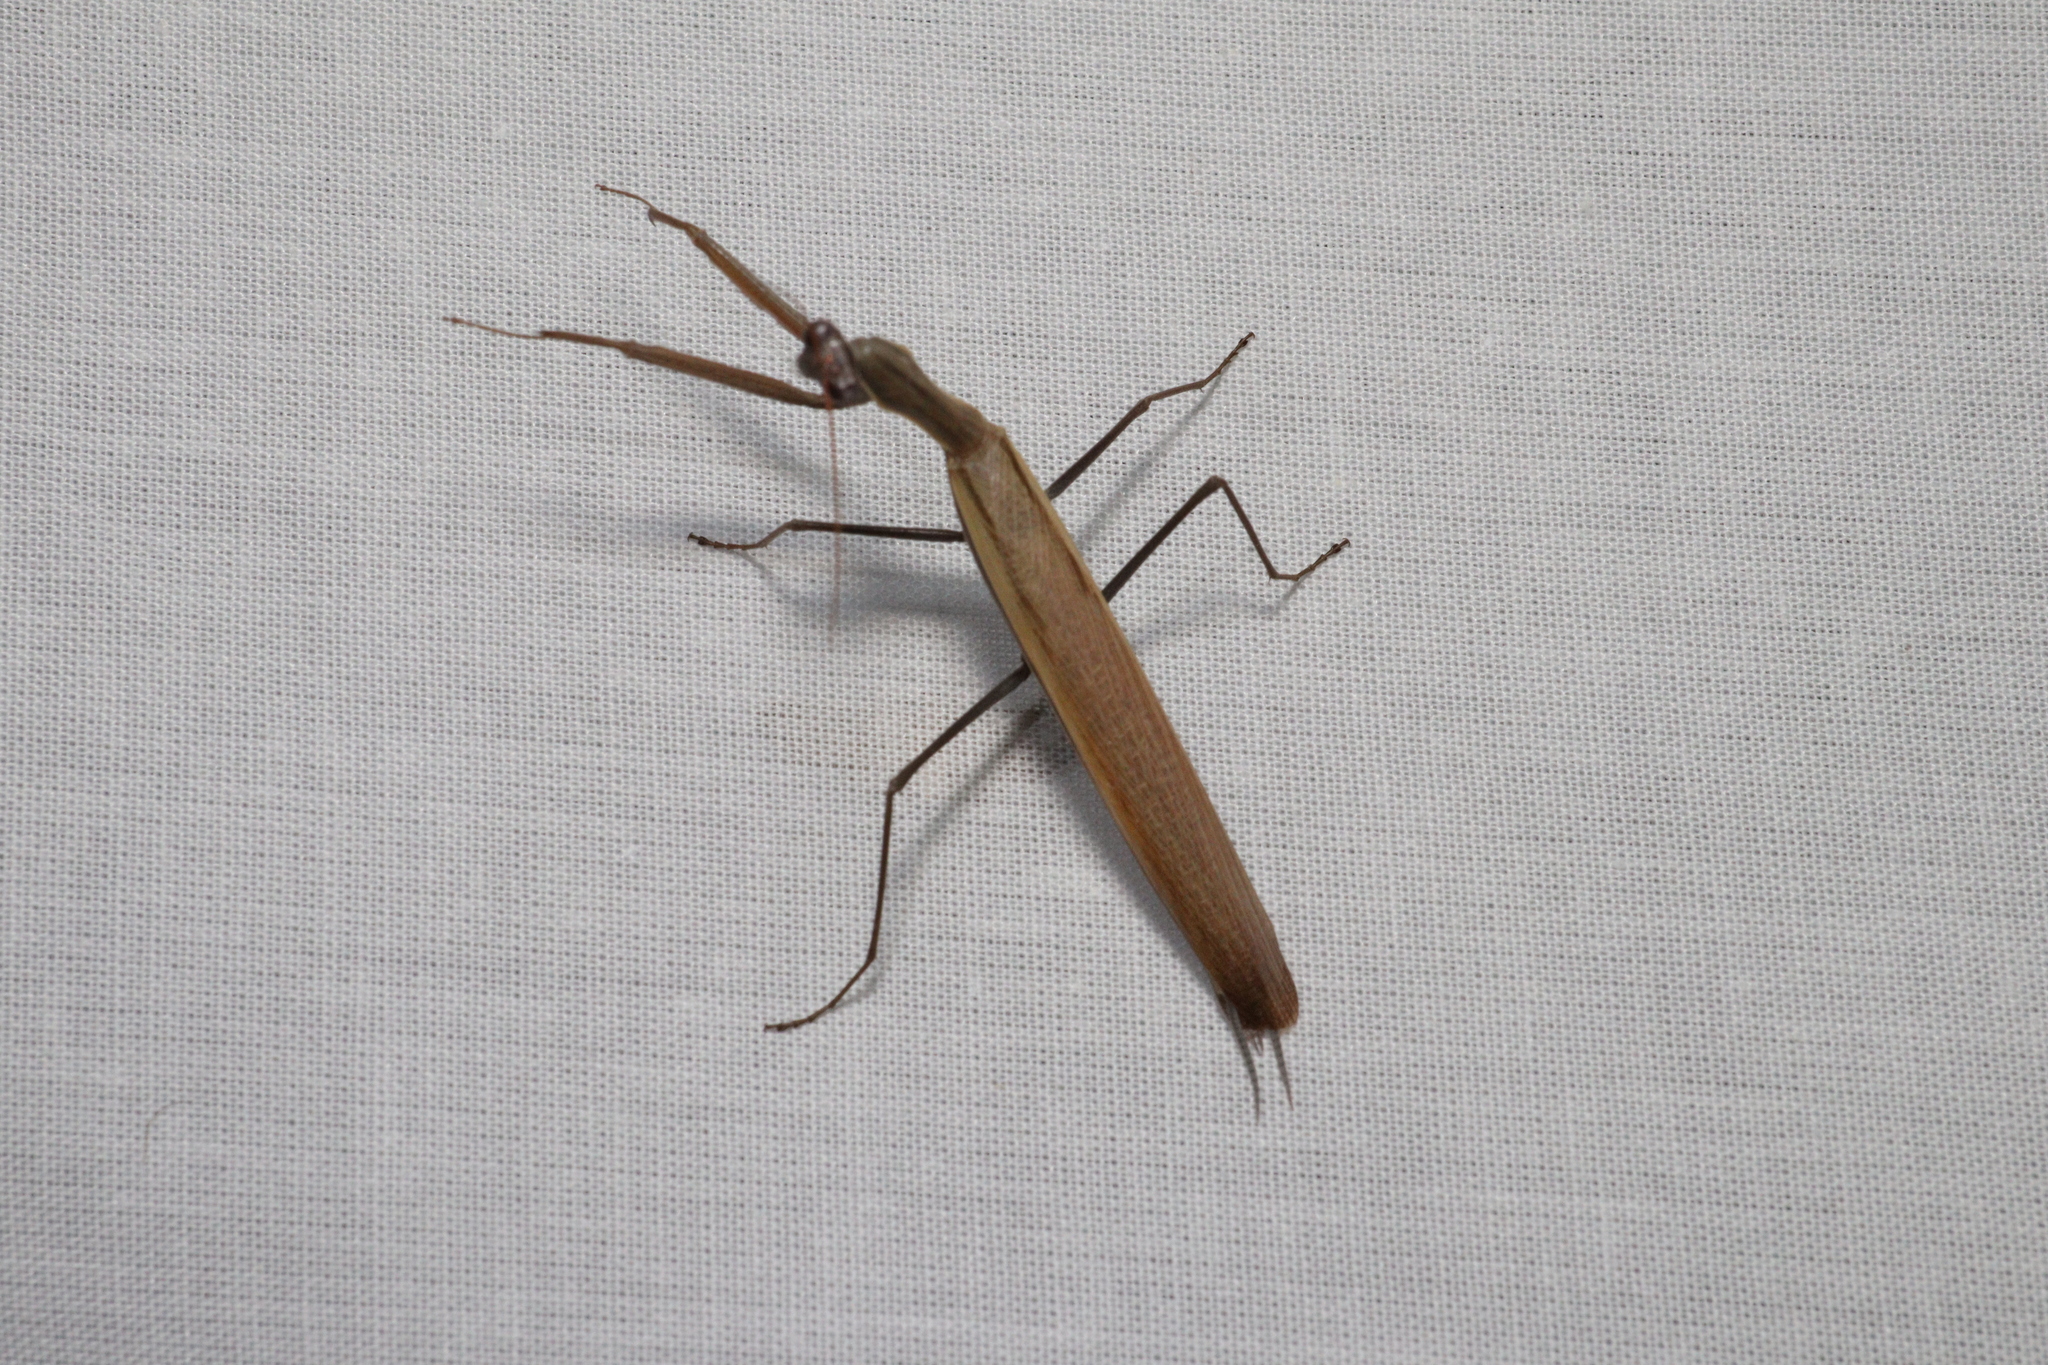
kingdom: Animalia
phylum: Arthropoda
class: Insecta
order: Mantodea
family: Mantidae
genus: Mantis
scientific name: Mantis octospilota
